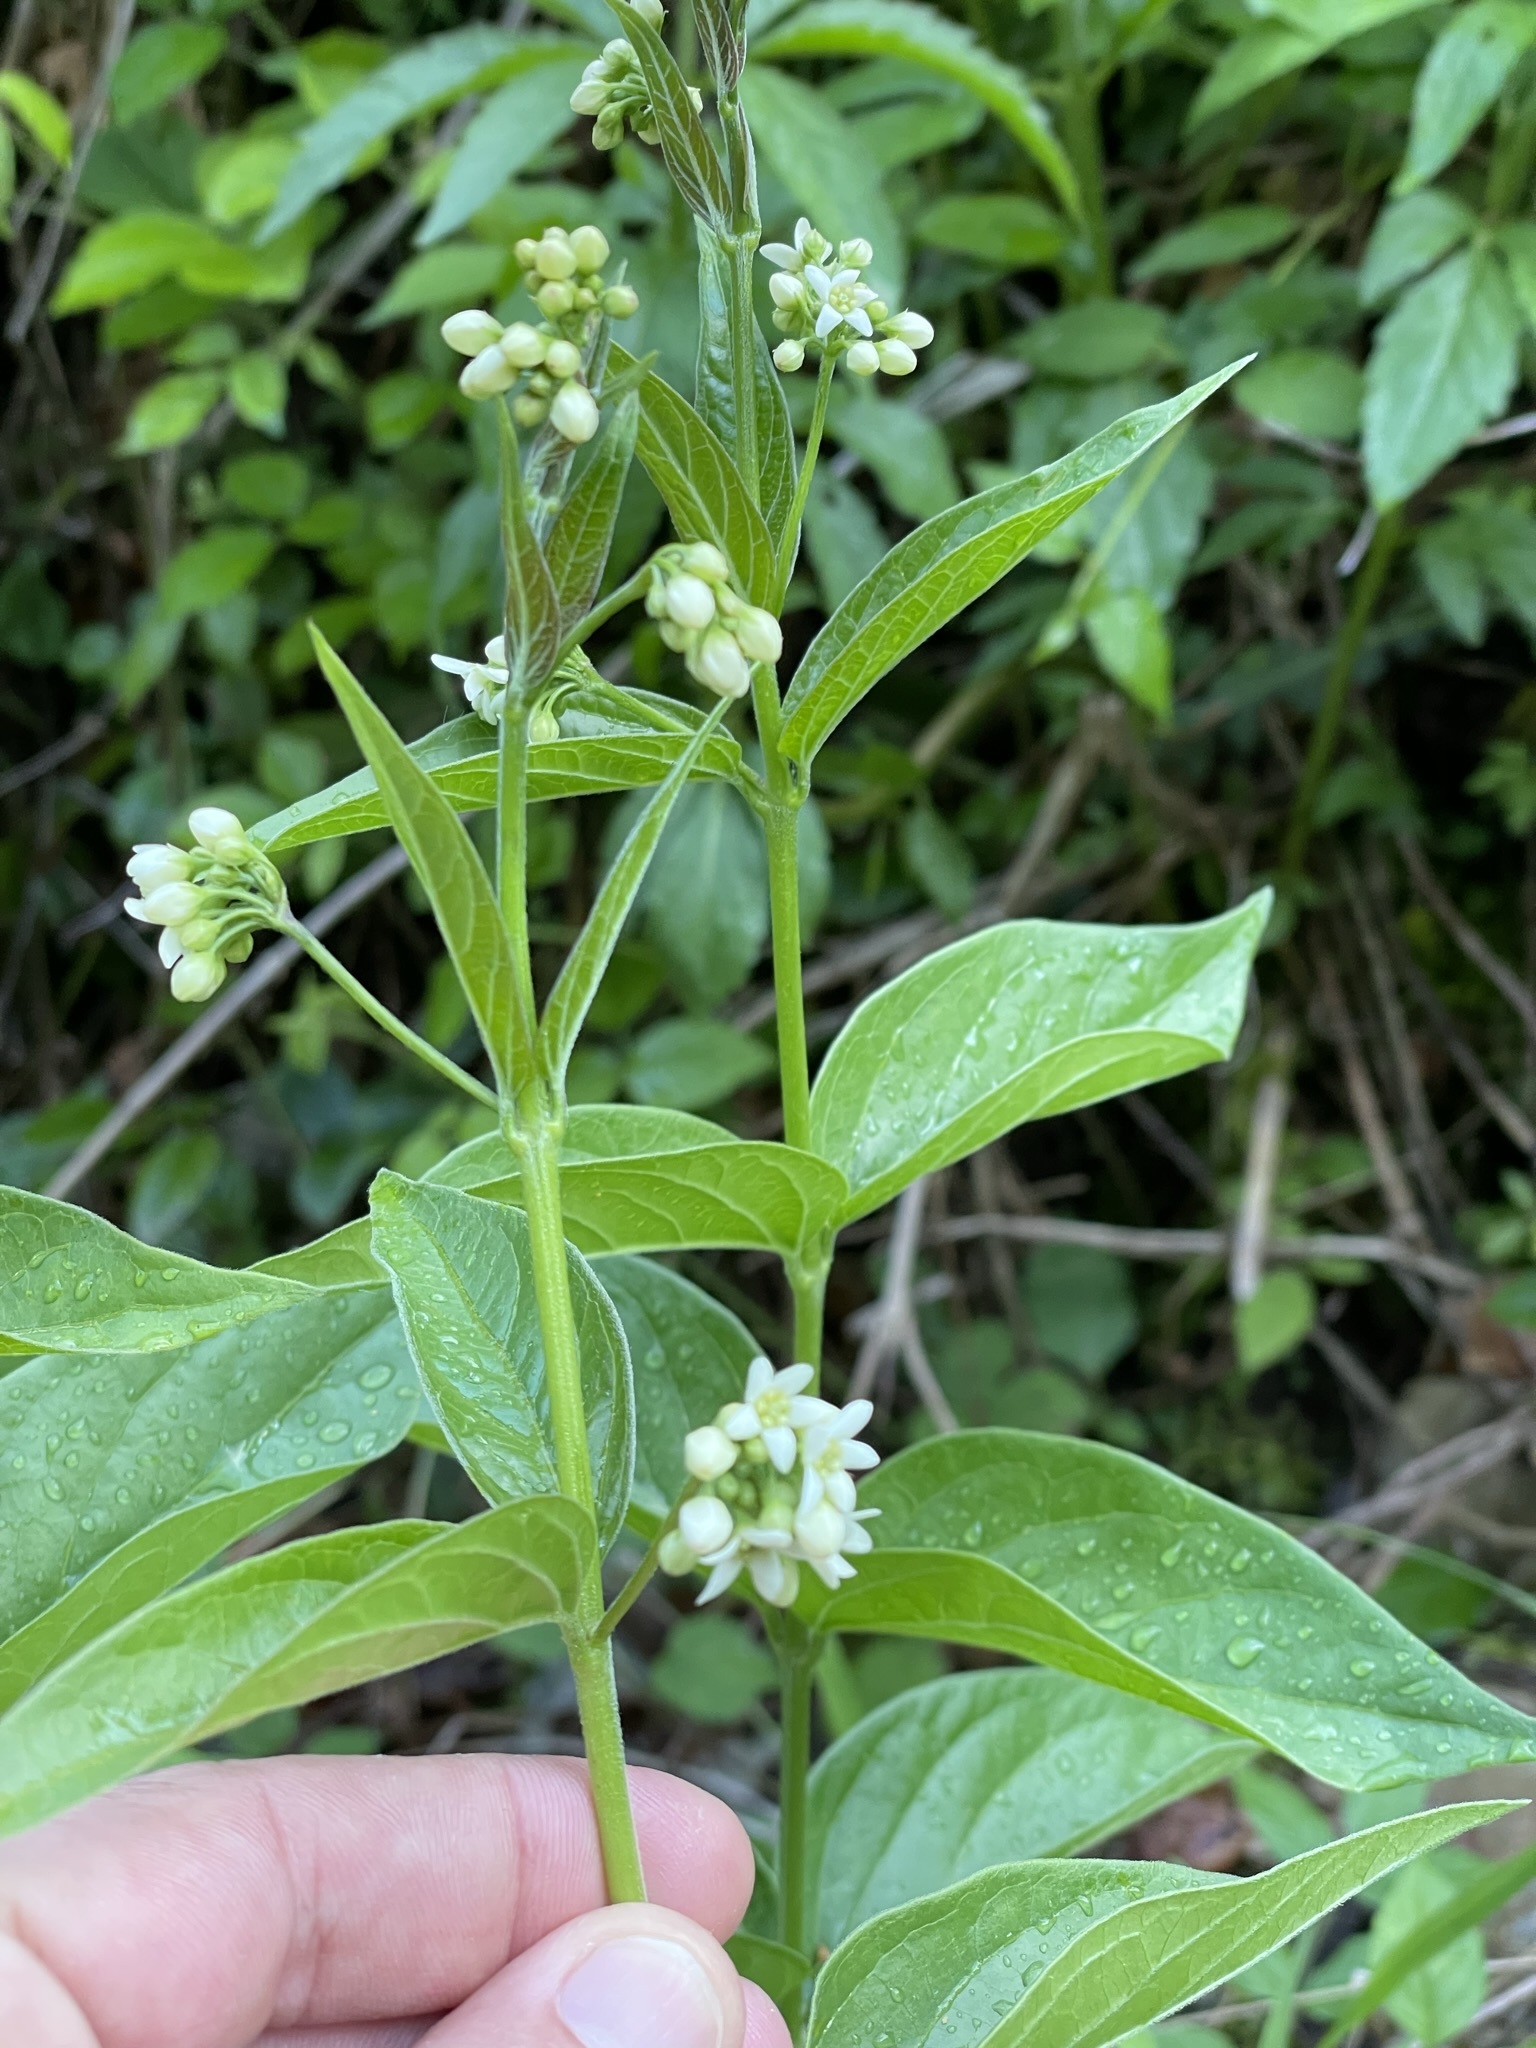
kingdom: Plantae
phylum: Tracheophyta
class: Magnoliopsida
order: Gentianales
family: Apocynaceae
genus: Vincetoxicum
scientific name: Vincetoxicum hirundinaria
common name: White swallowwort
